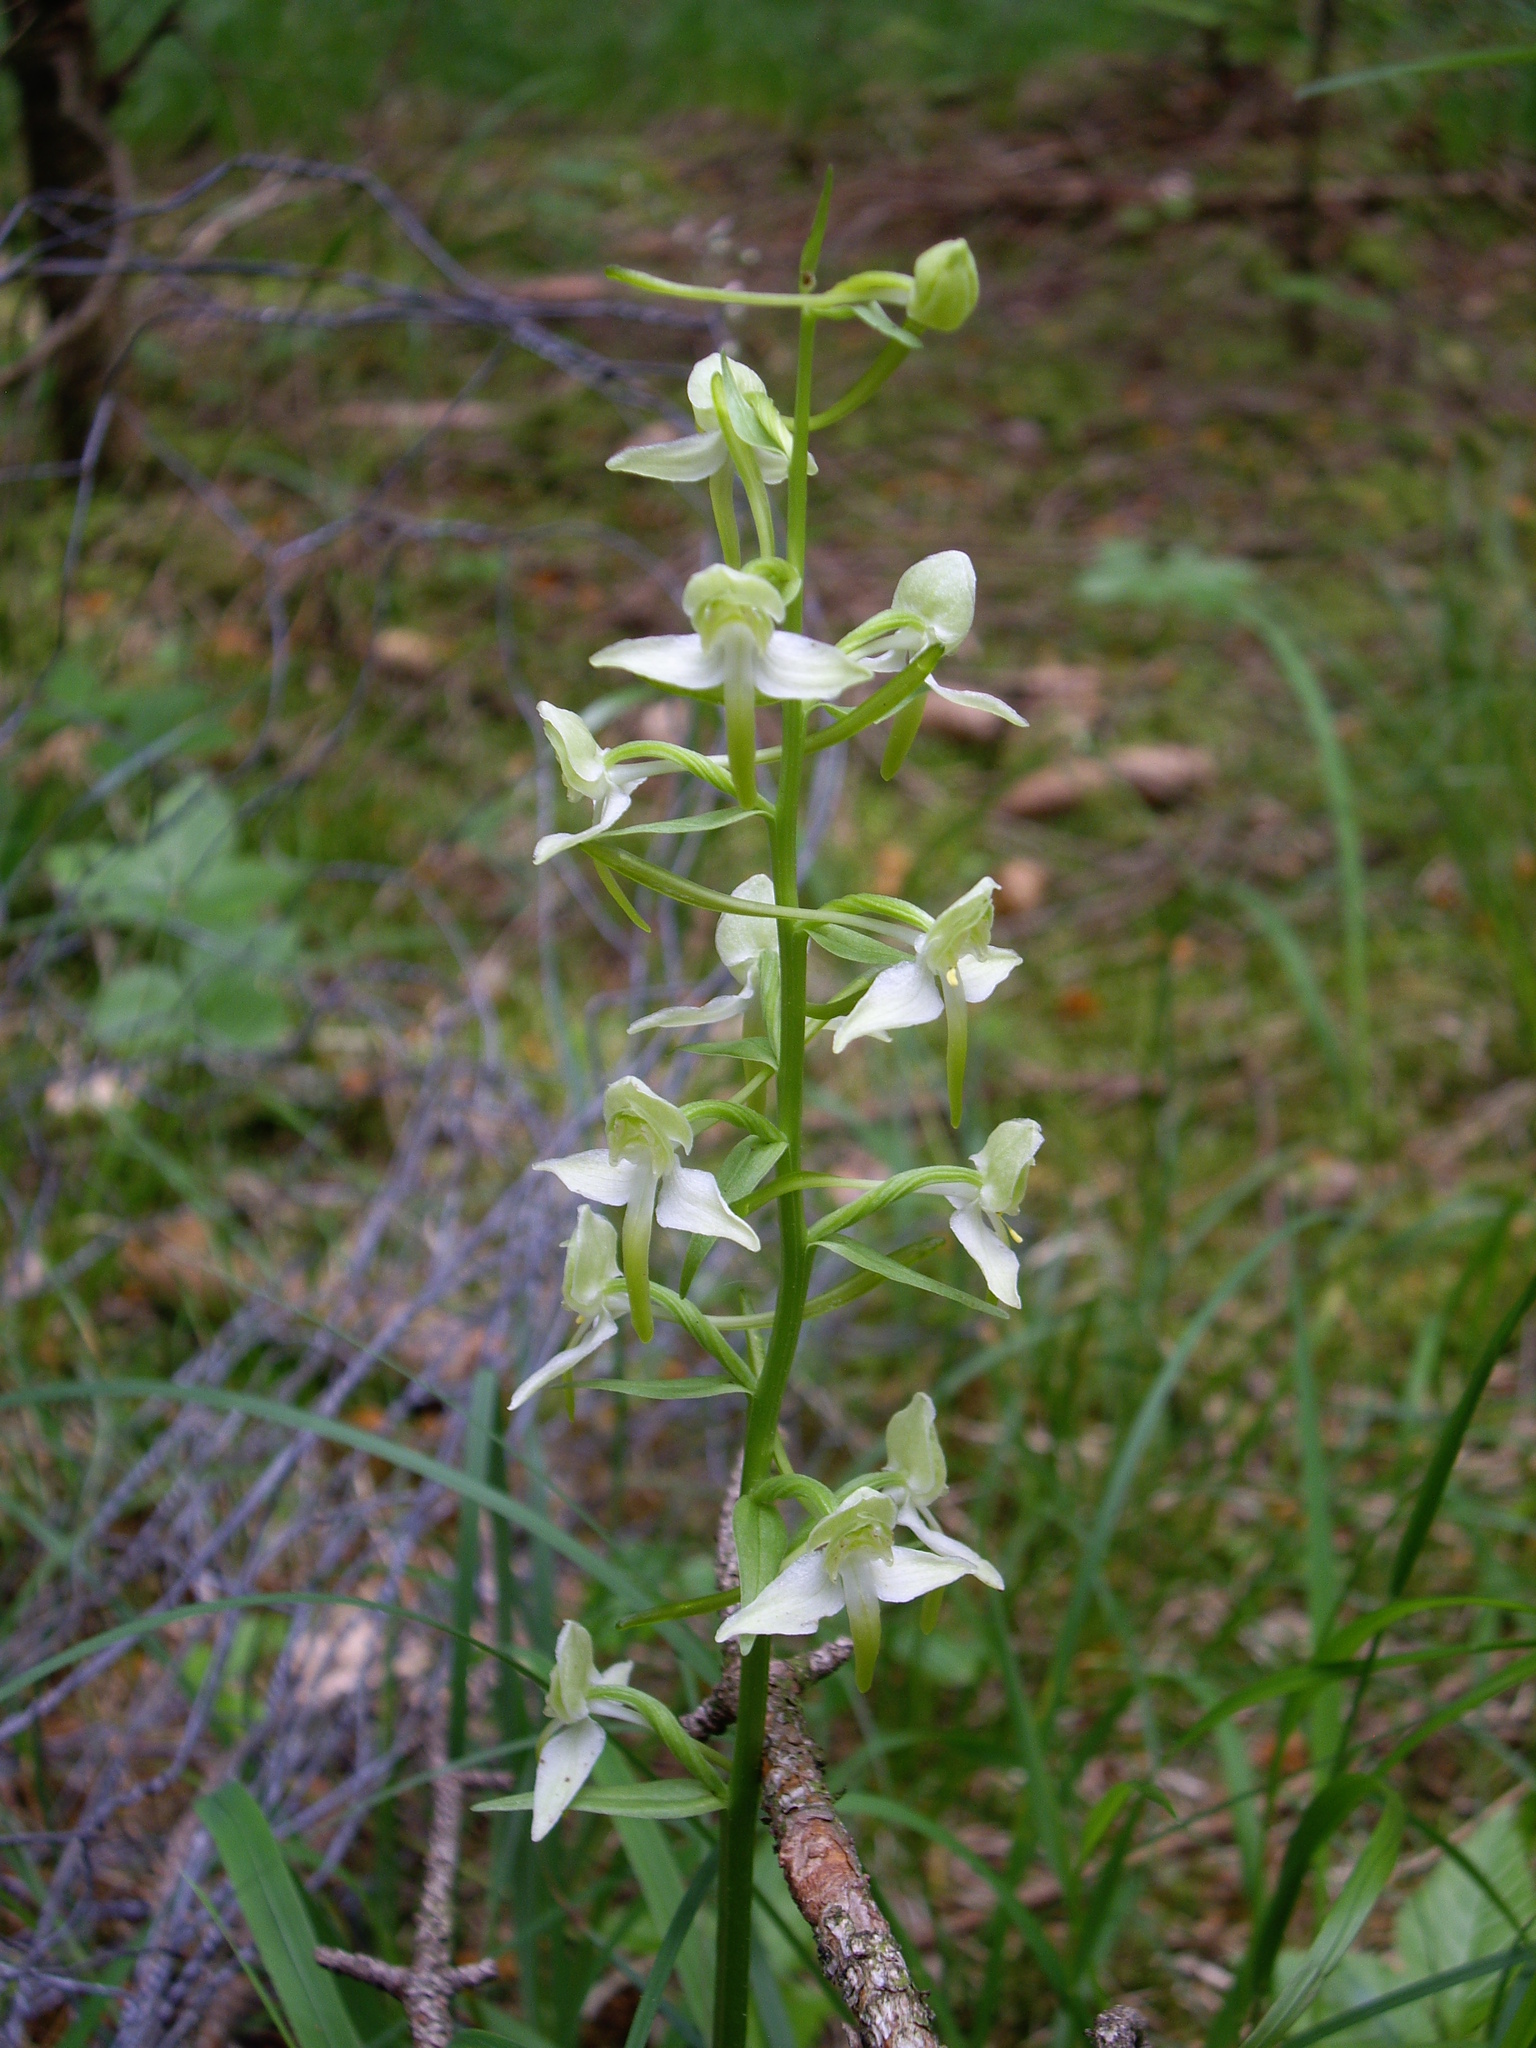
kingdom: Plantae
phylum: Tracheophyta
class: Liliopsida
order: Asparagales
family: Orchidaceae
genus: Platanthera
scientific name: Platanthera chlorantha
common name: Greater butterfly-orchid
